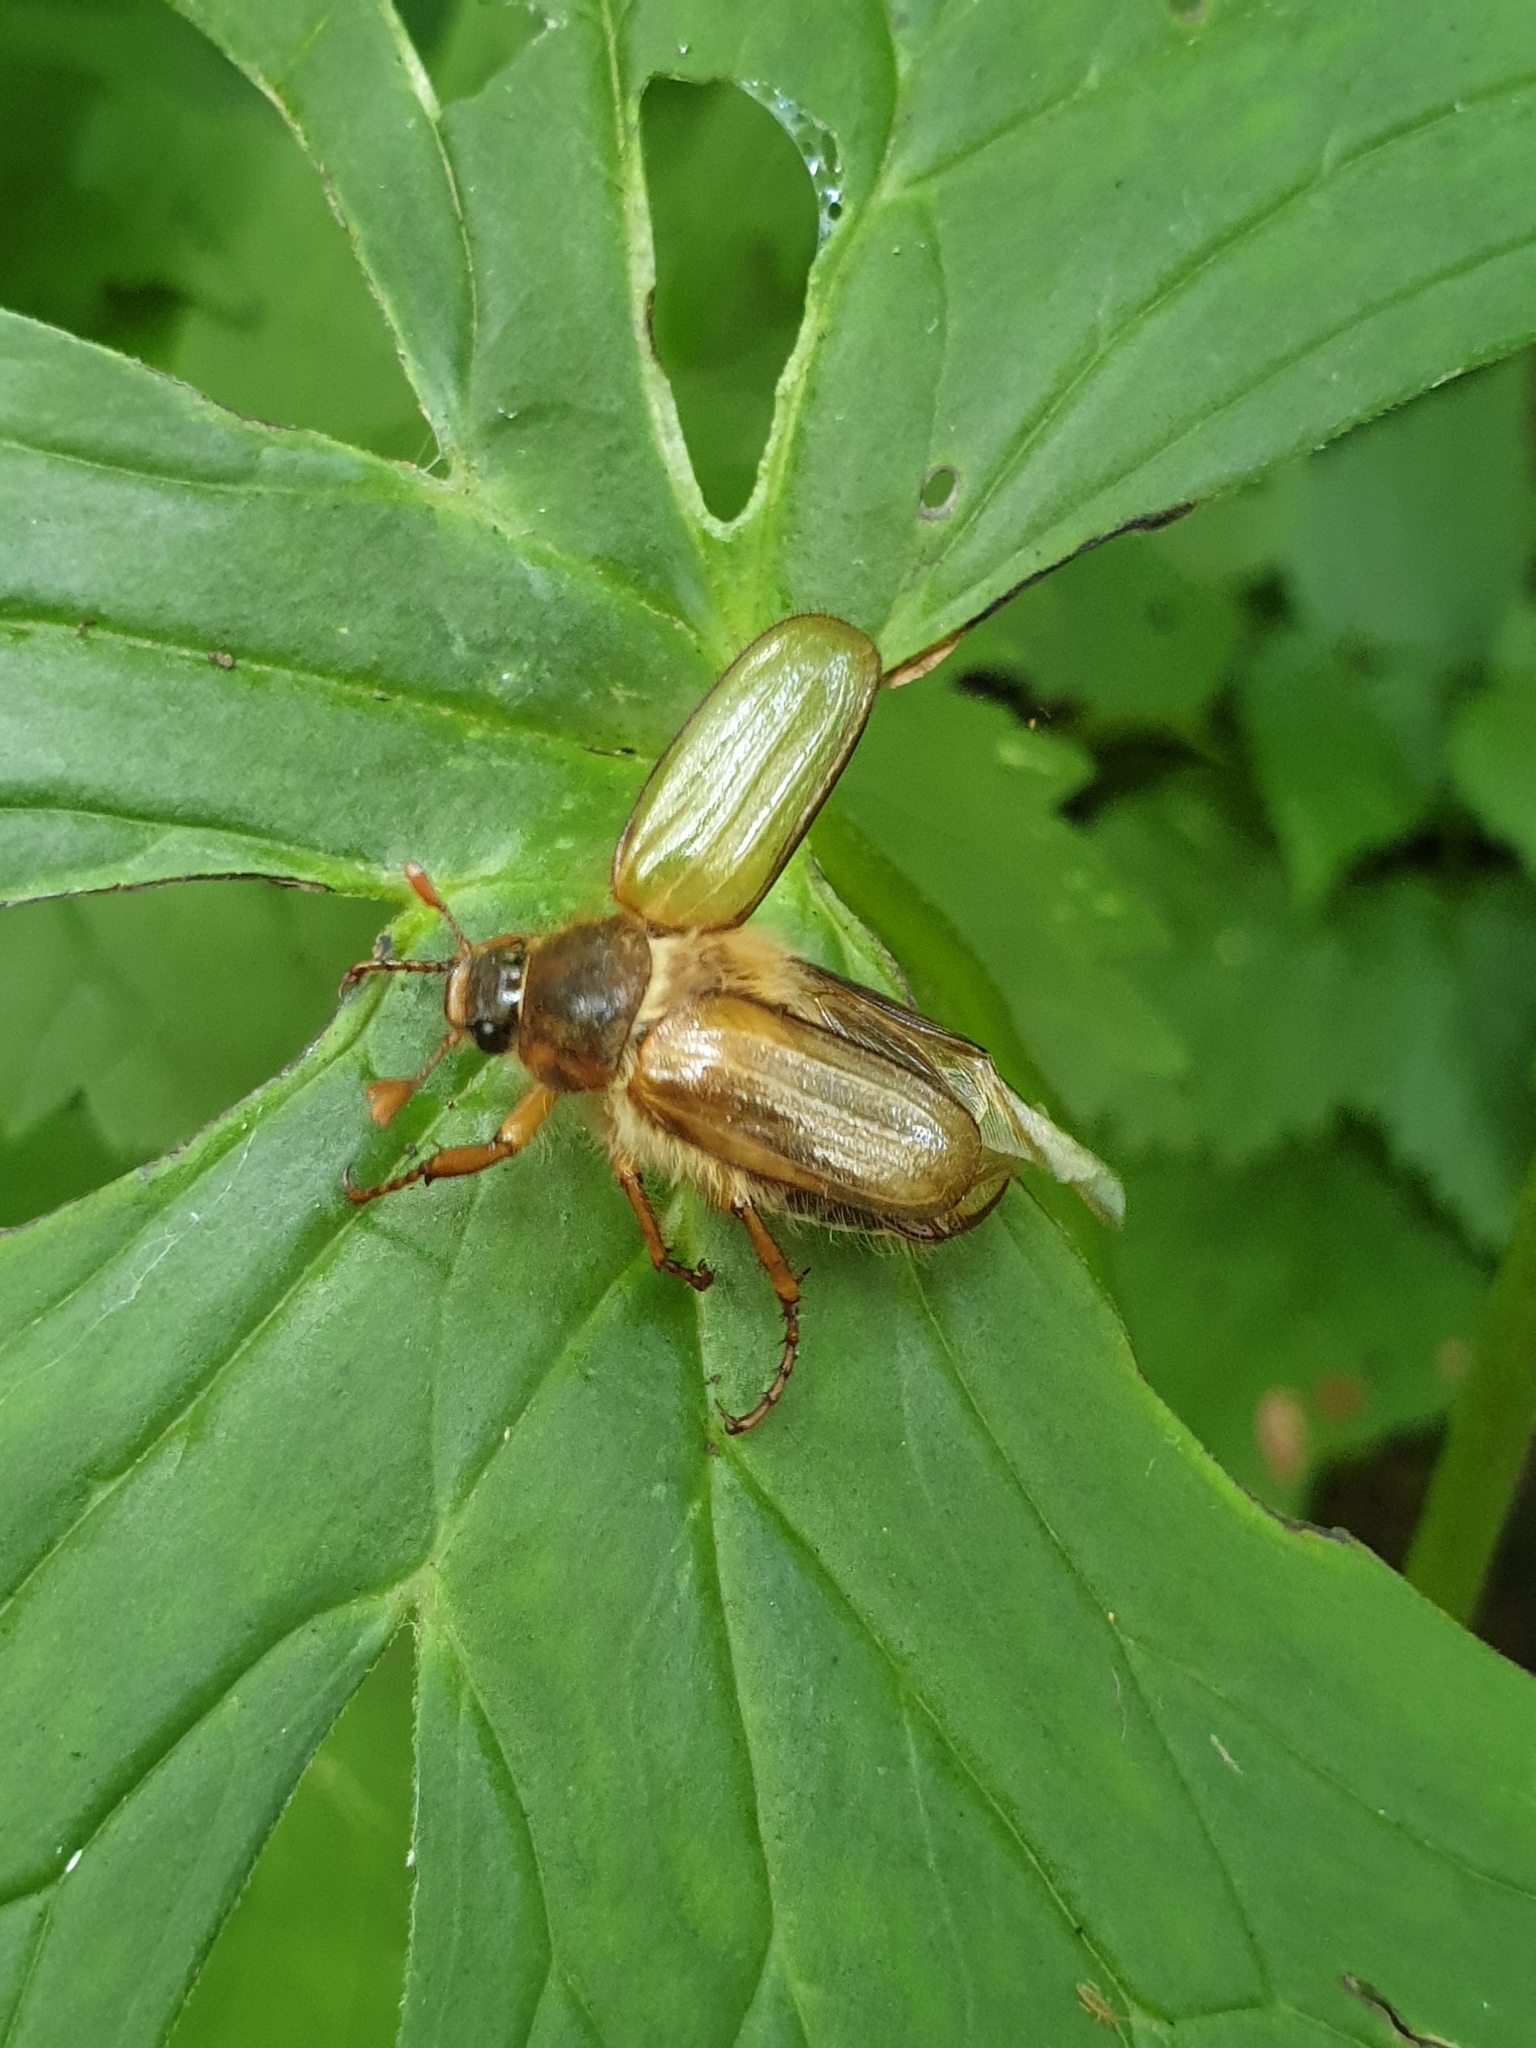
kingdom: Animalia
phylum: Arthropoda
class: Insecta
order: Coleoptera
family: Scarabaeidae
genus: Amphimallon
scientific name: Amphimallon solstitiale
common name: Summer chafer
